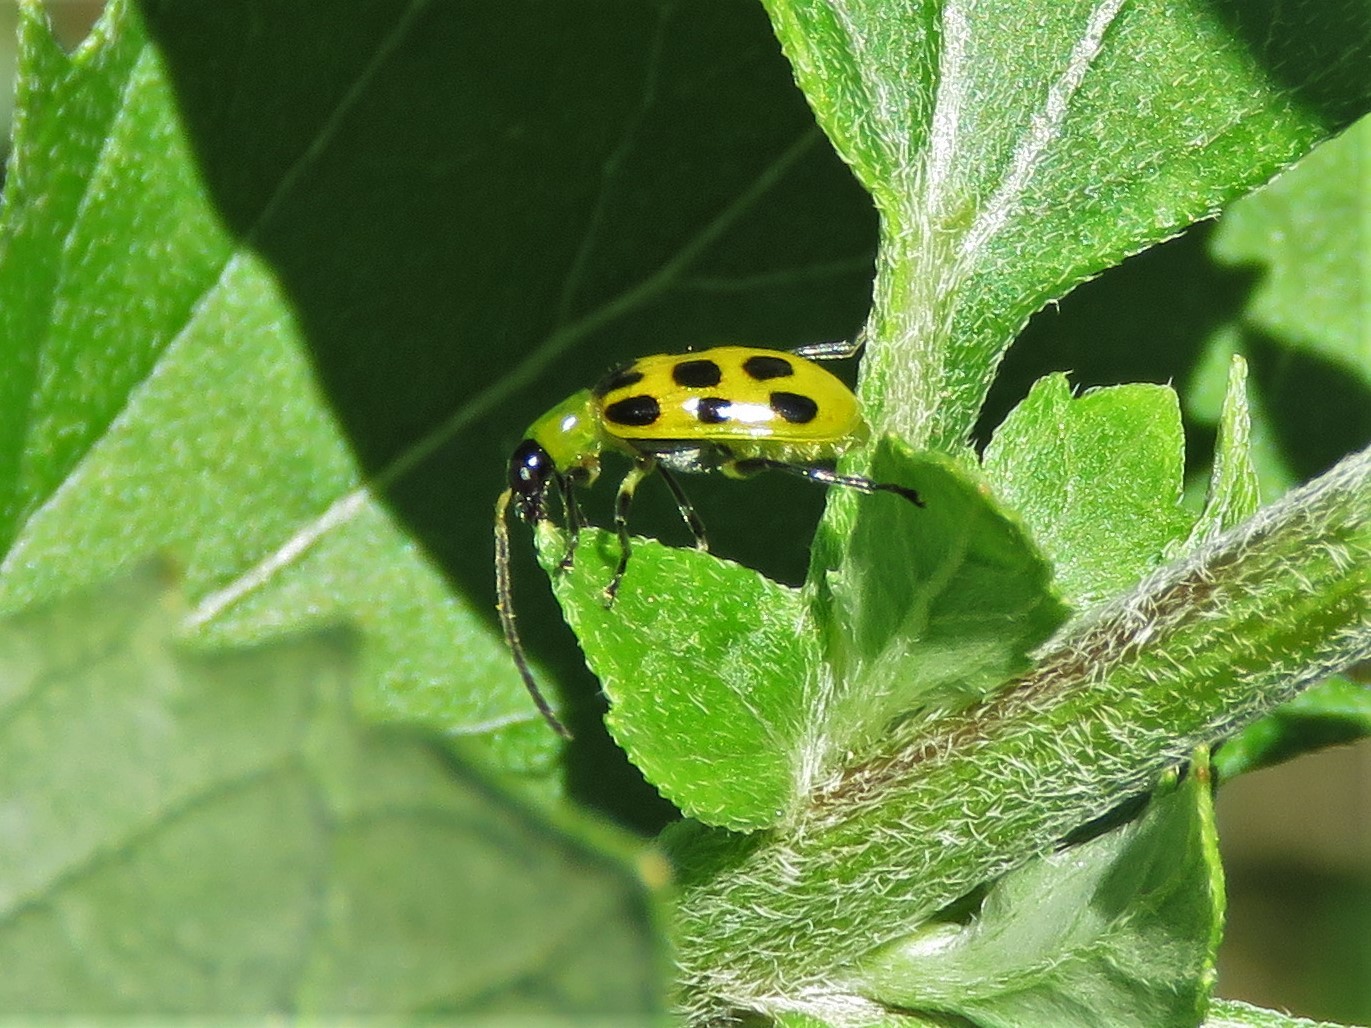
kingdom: Animalia
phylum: Arthropoda
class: Insecta
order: Coleoptera
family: Chrysomelidae
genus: Diabrotica
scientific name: Diabrotica undecimpunctata
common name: Spotted cucumber beetle
